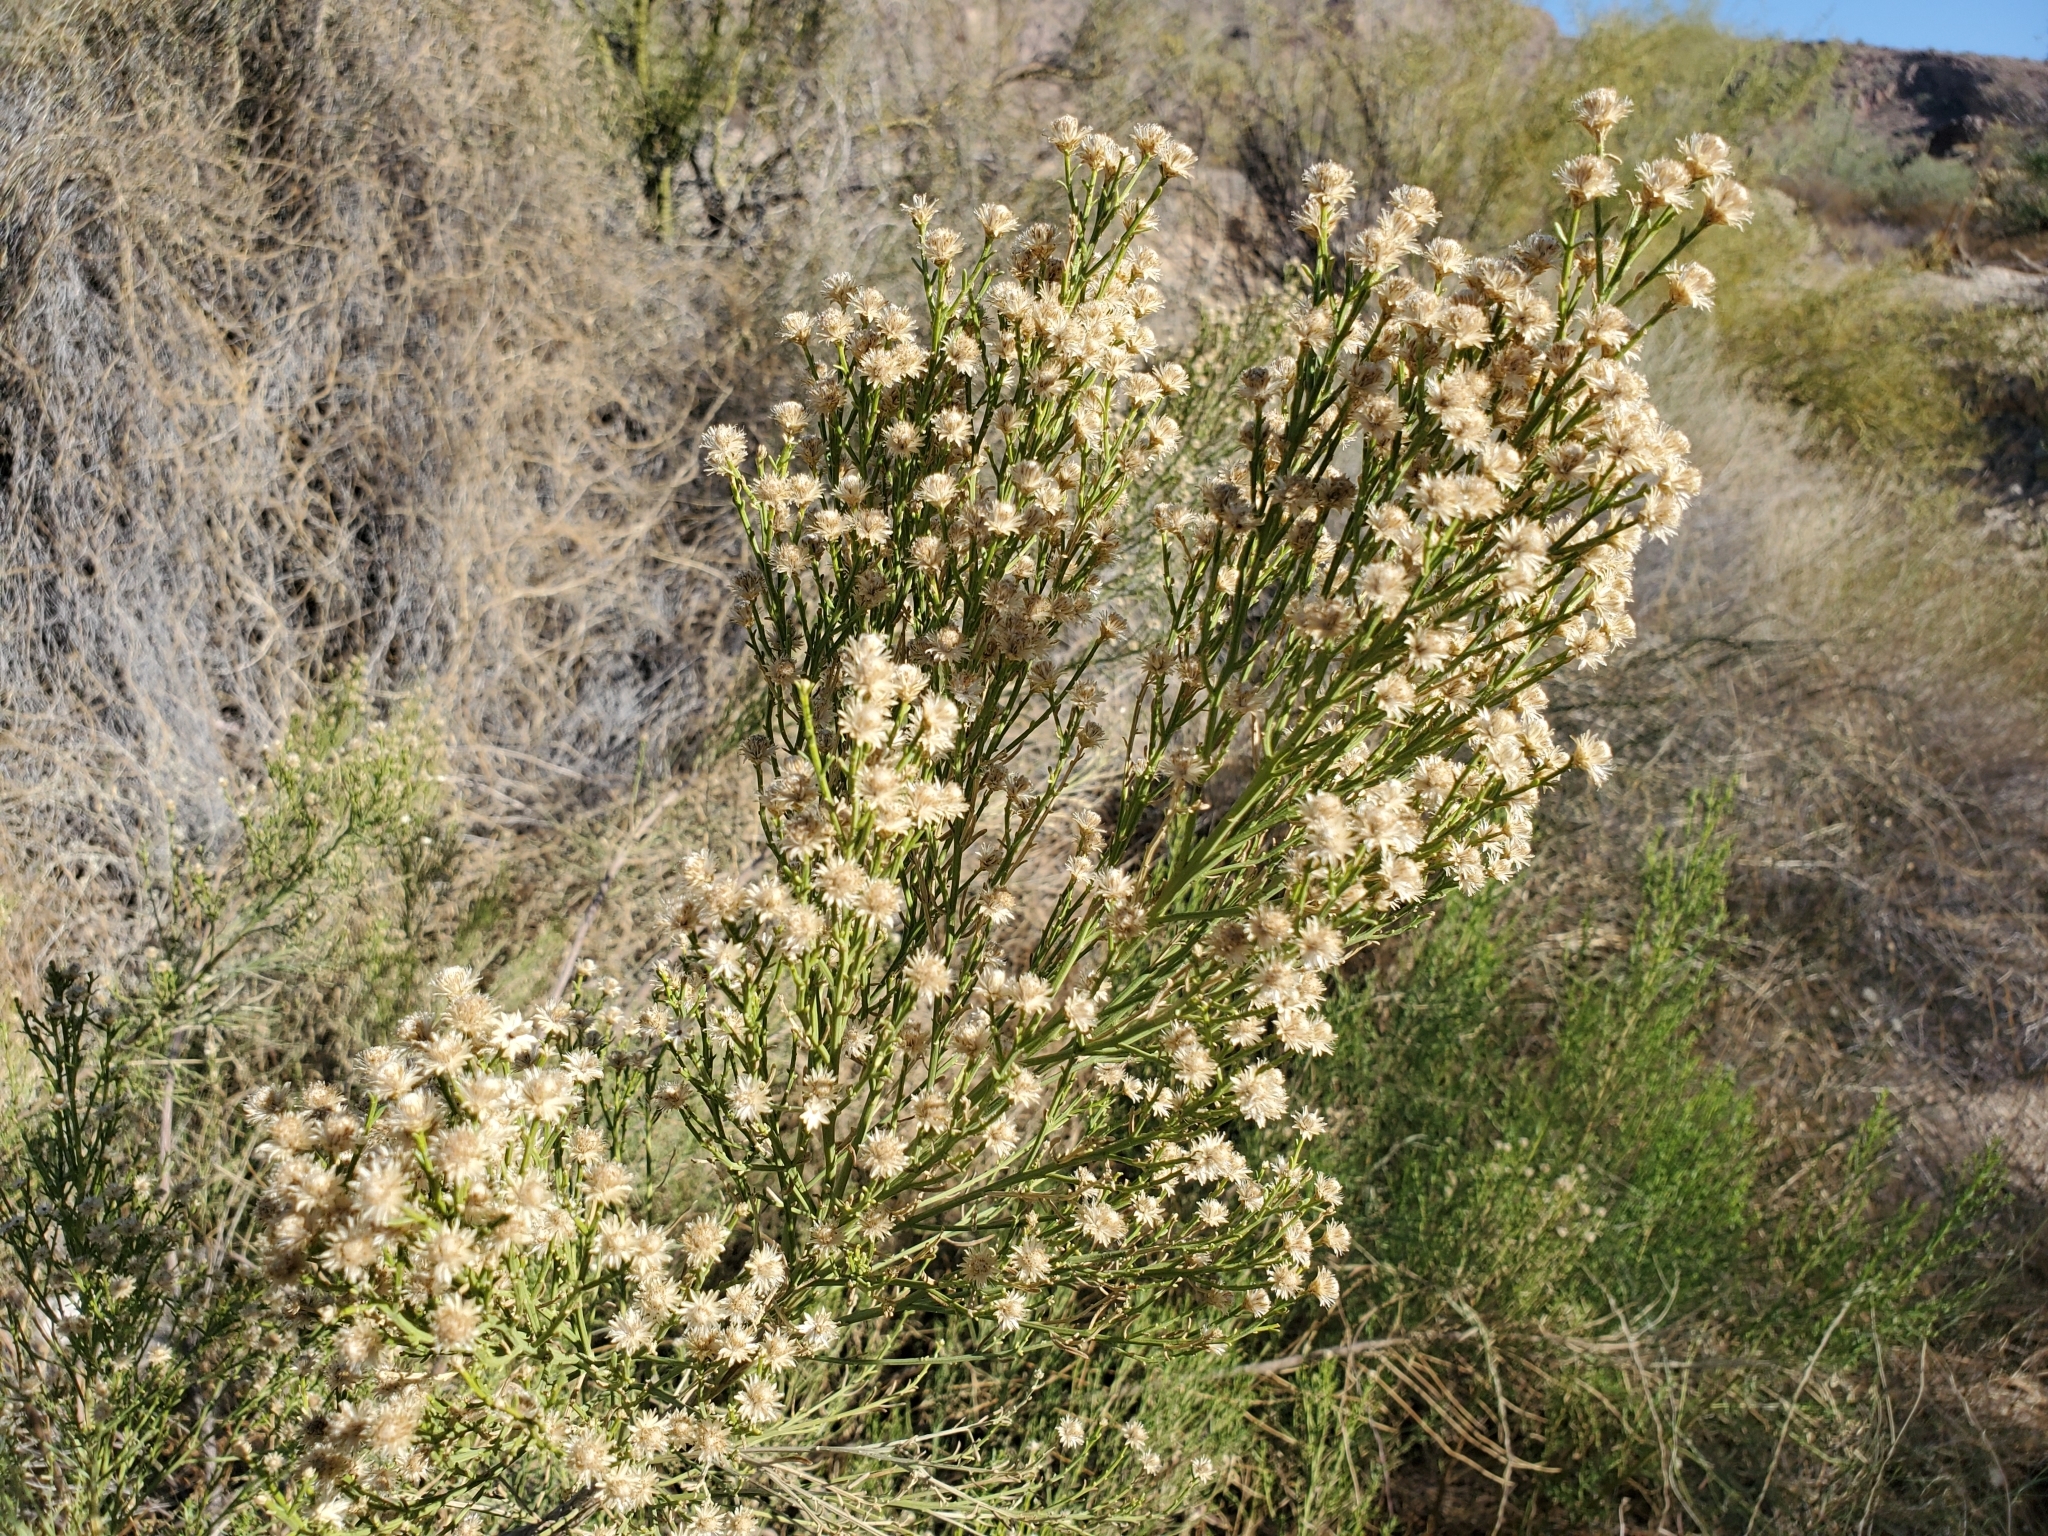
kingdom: Plantae
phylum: Tracheophyta
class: Magnoliopsida
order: Asterales
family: Asteraceae
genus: Baccharis
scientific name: Baccharis sarothroides
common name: Desert-broom
